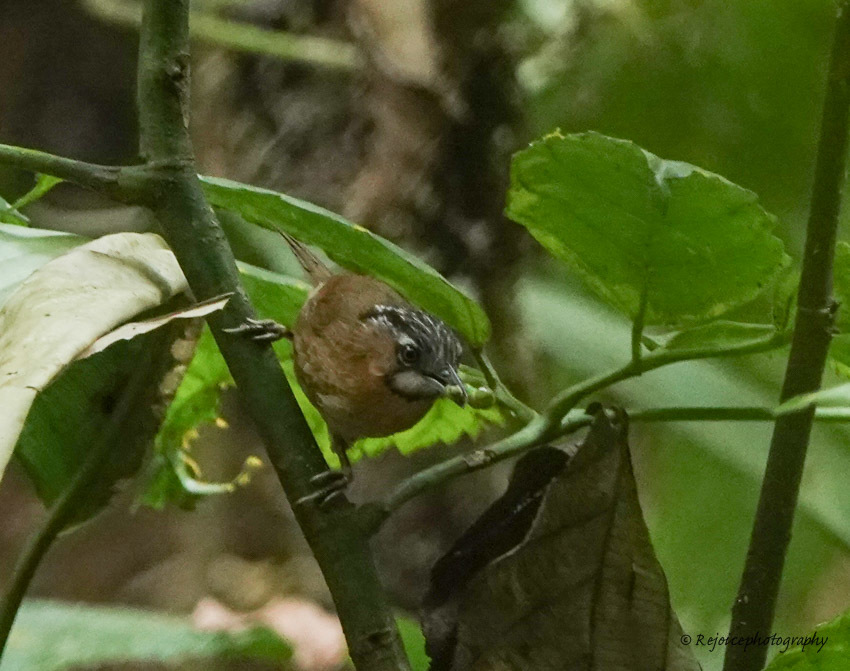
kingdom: Animalia
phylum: Chordata
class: Aves
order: Passeriformes
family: Timaliidae
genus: Stachyris
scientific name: Stachyris nigriceps
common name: Grey-throated babbler
